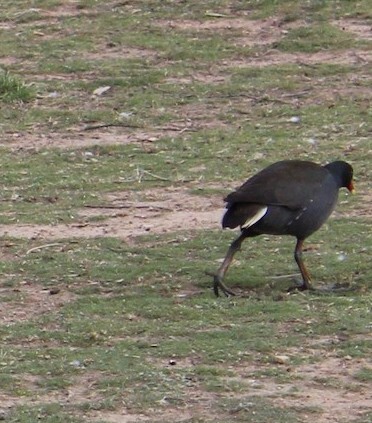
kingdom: Animalia
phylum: Chordata
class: Aves
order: Gruiformes
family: Rallidae
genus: Gallinula
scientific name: Gallinula tenebrosa
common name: Dusky moorhen
